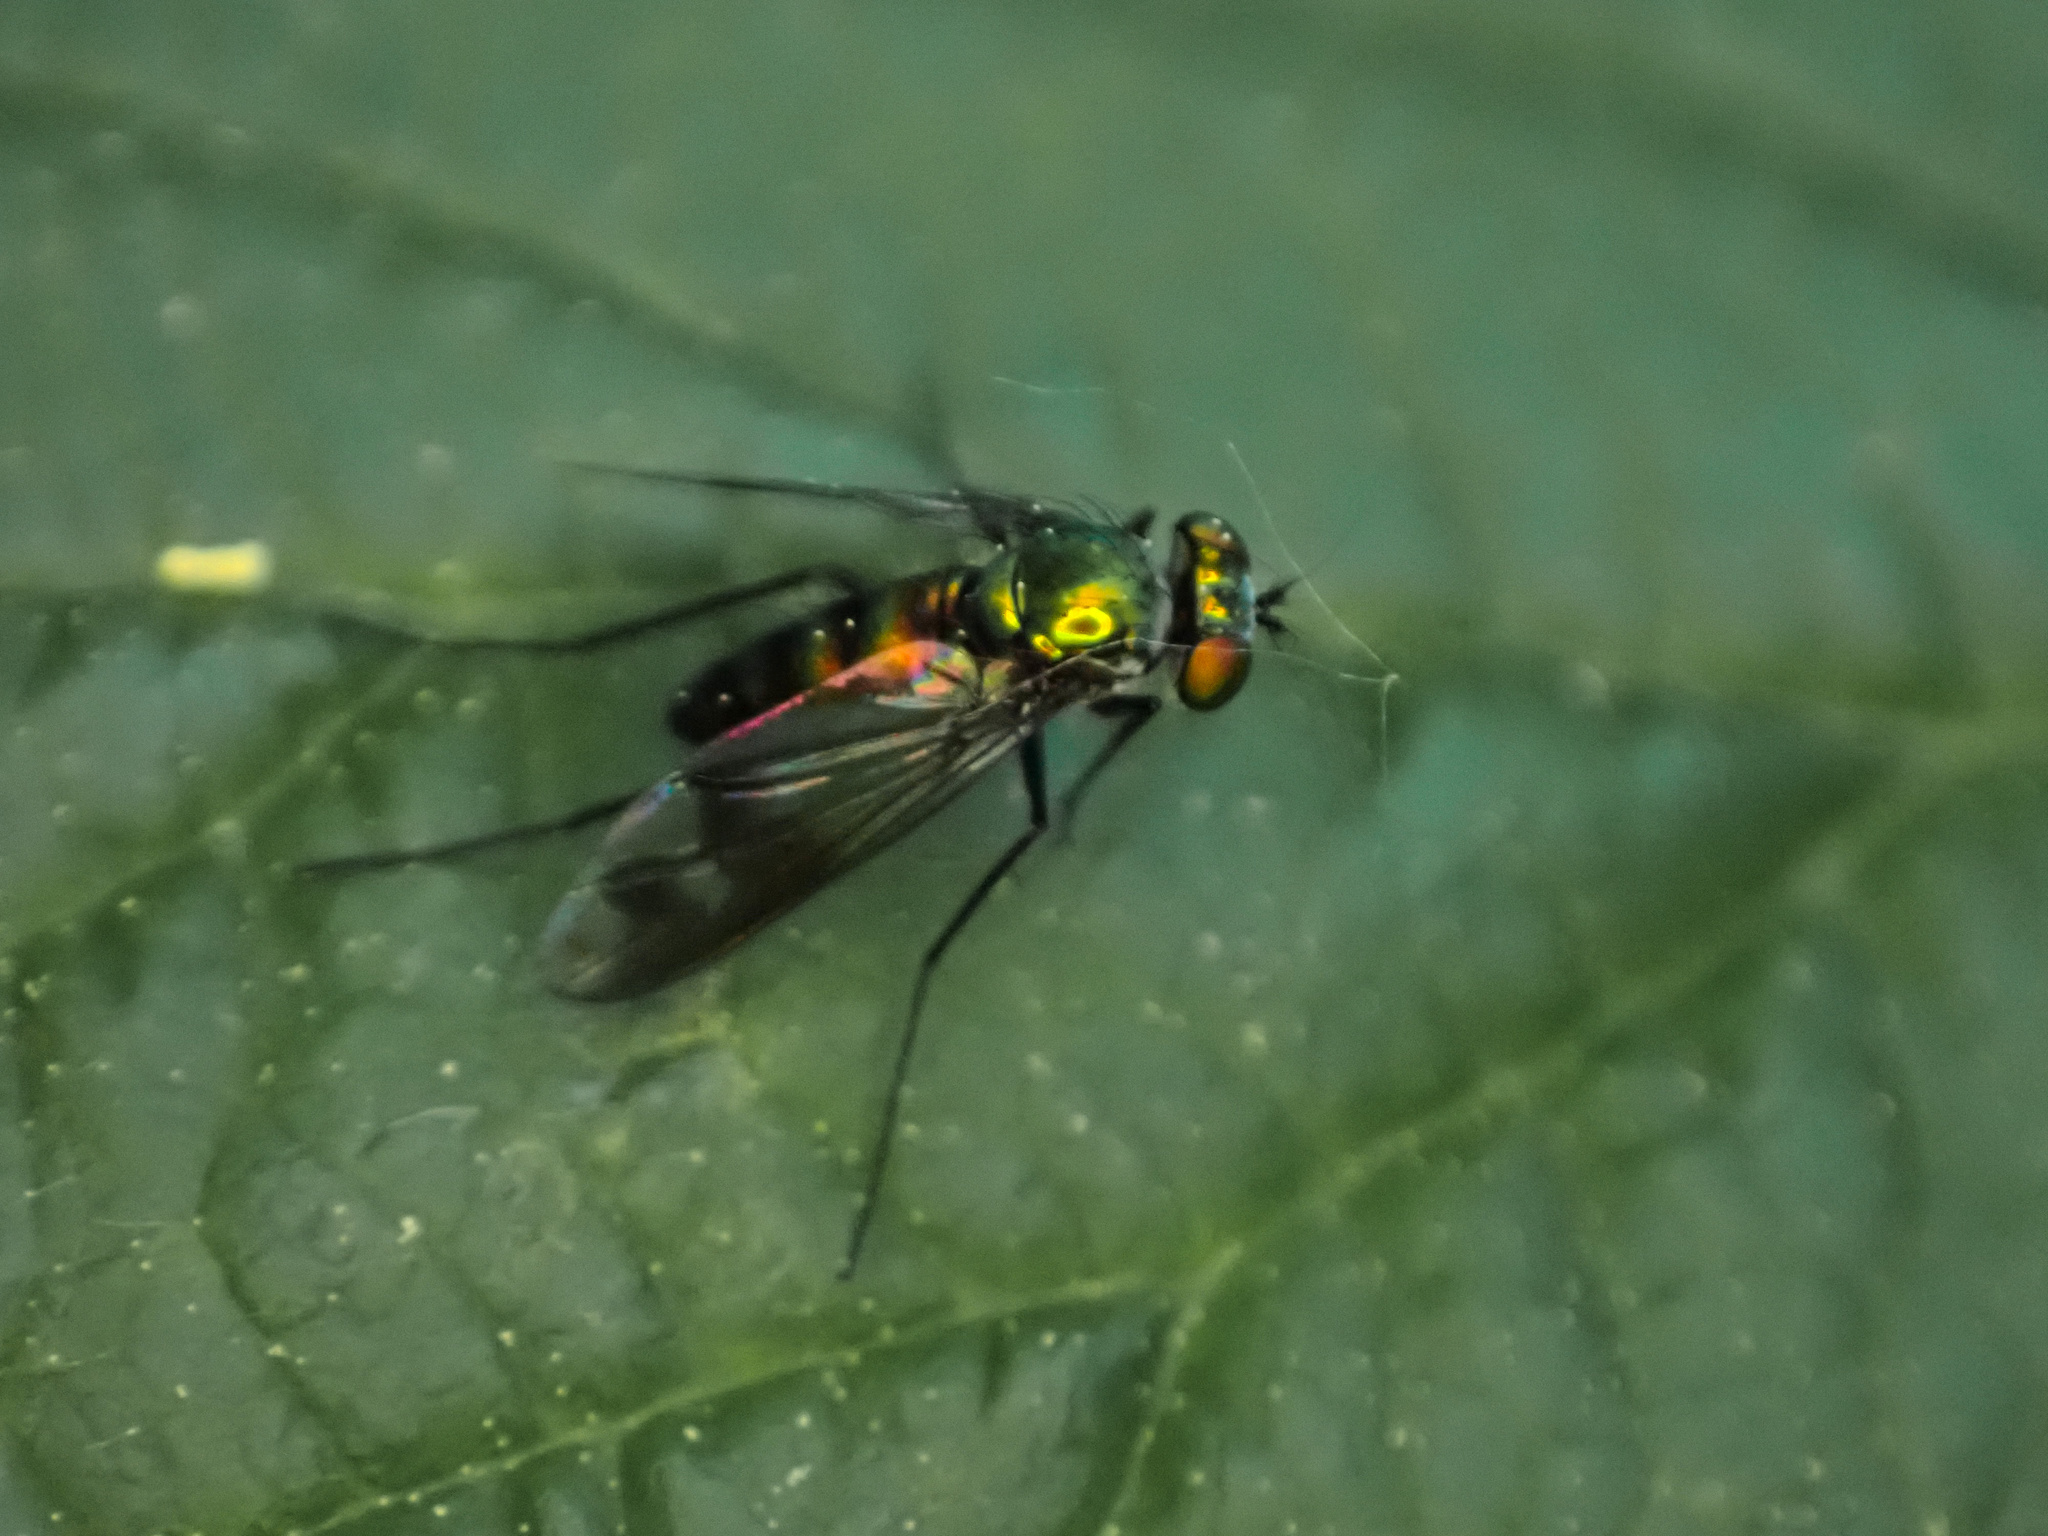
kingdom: Animalia
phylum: Arthropoda
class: Insecta
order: Diptera
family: Dolichopodidae
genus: Condylostylus
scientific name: Condylostylus patibulatus
